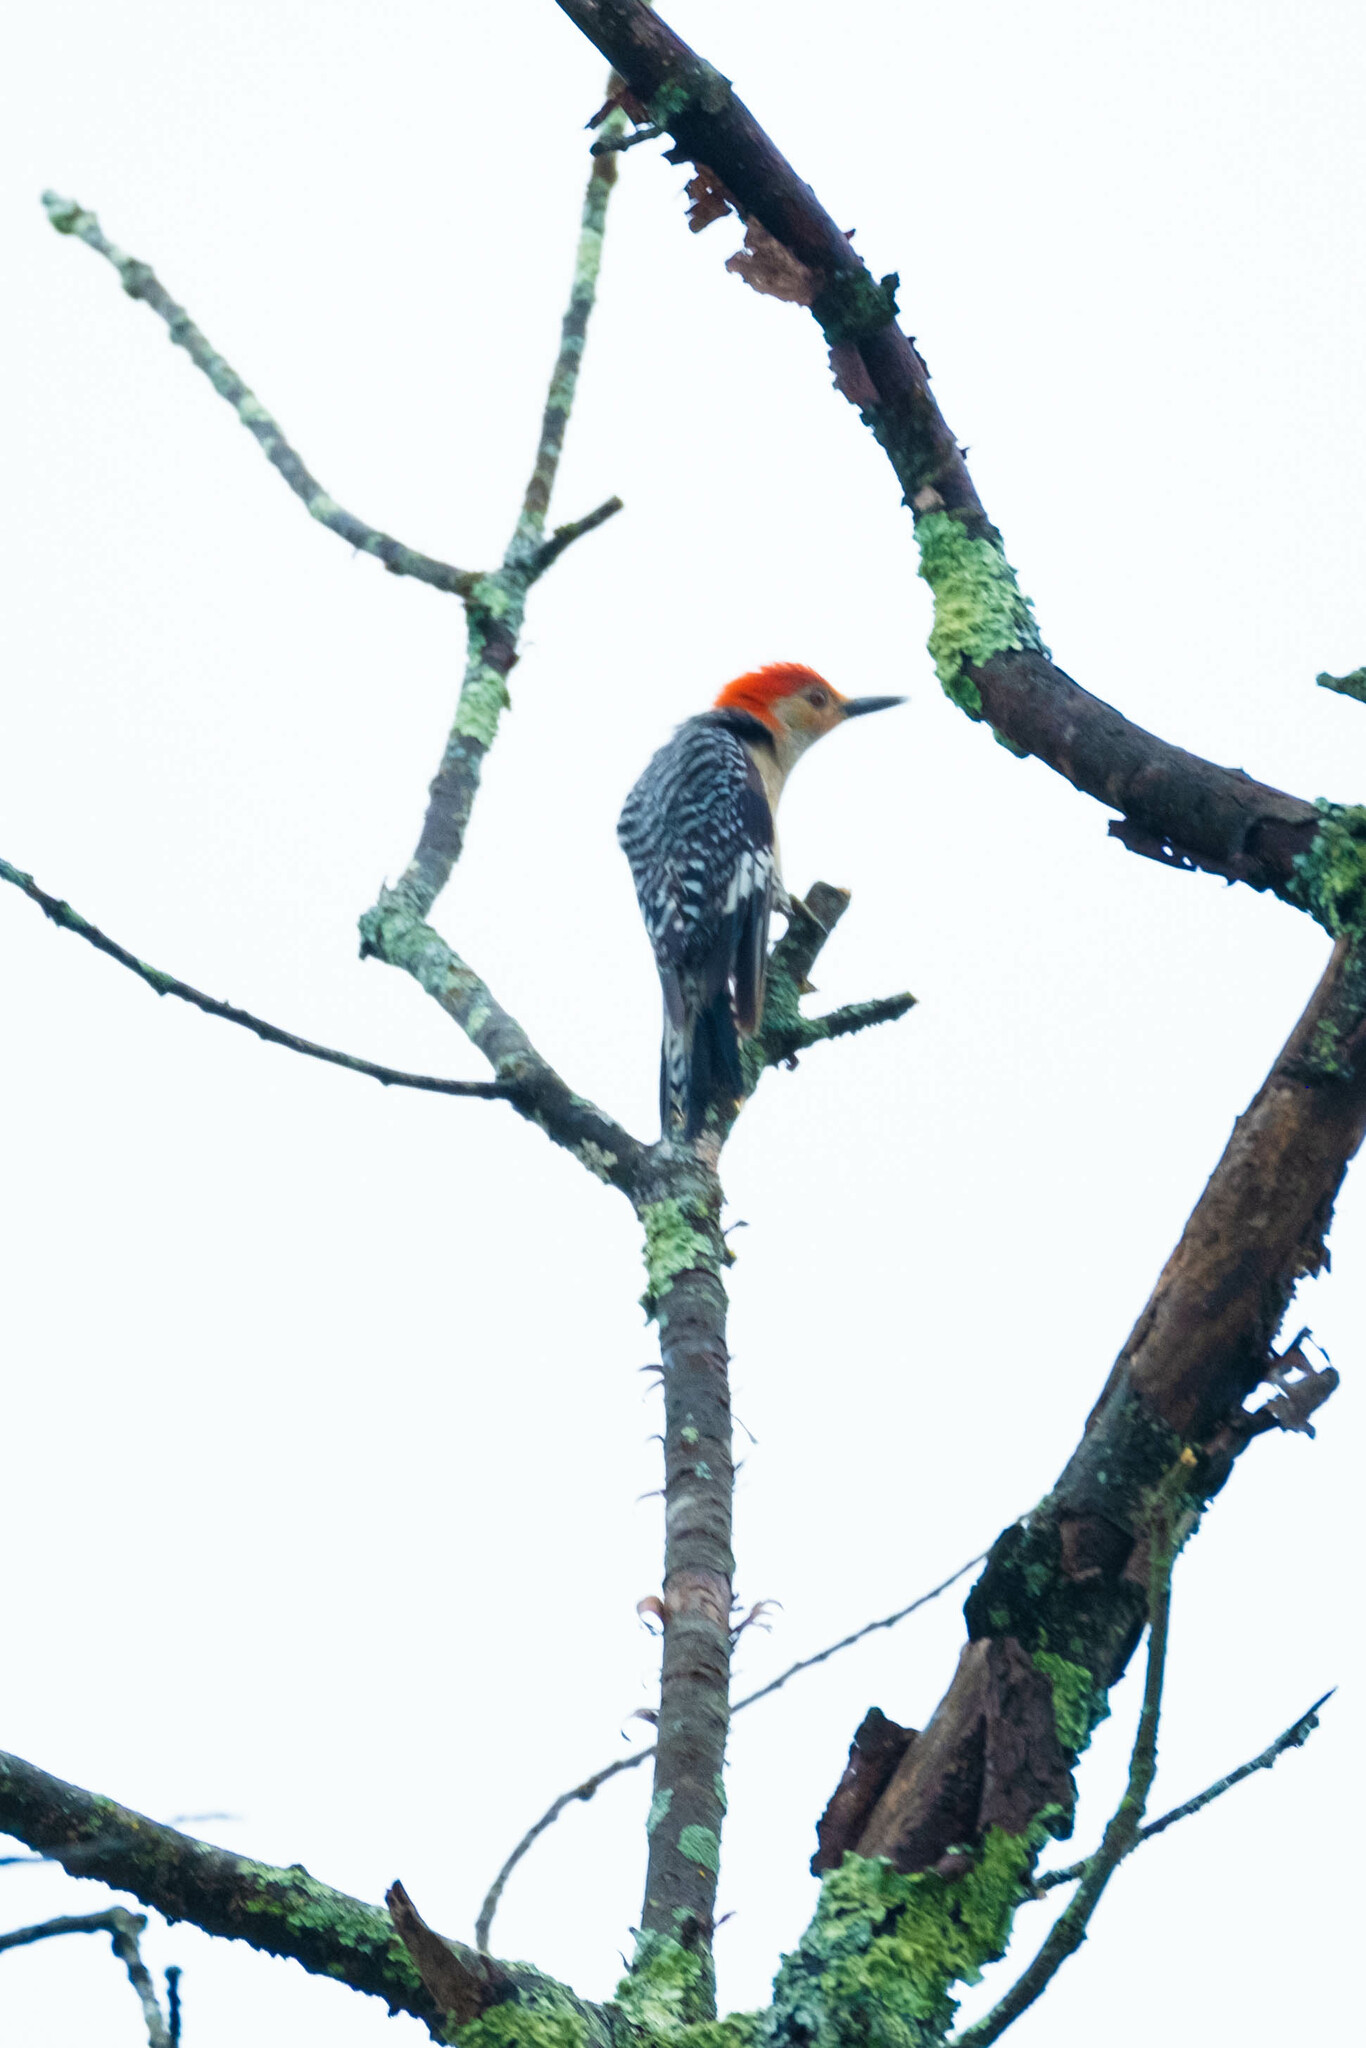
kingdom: Animalia
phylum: Chordata
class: Aves
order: Piciformes
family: Picidae
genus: Melanerpes
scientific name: Melanerpes carolinus
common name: Red-bellied woodpecker
